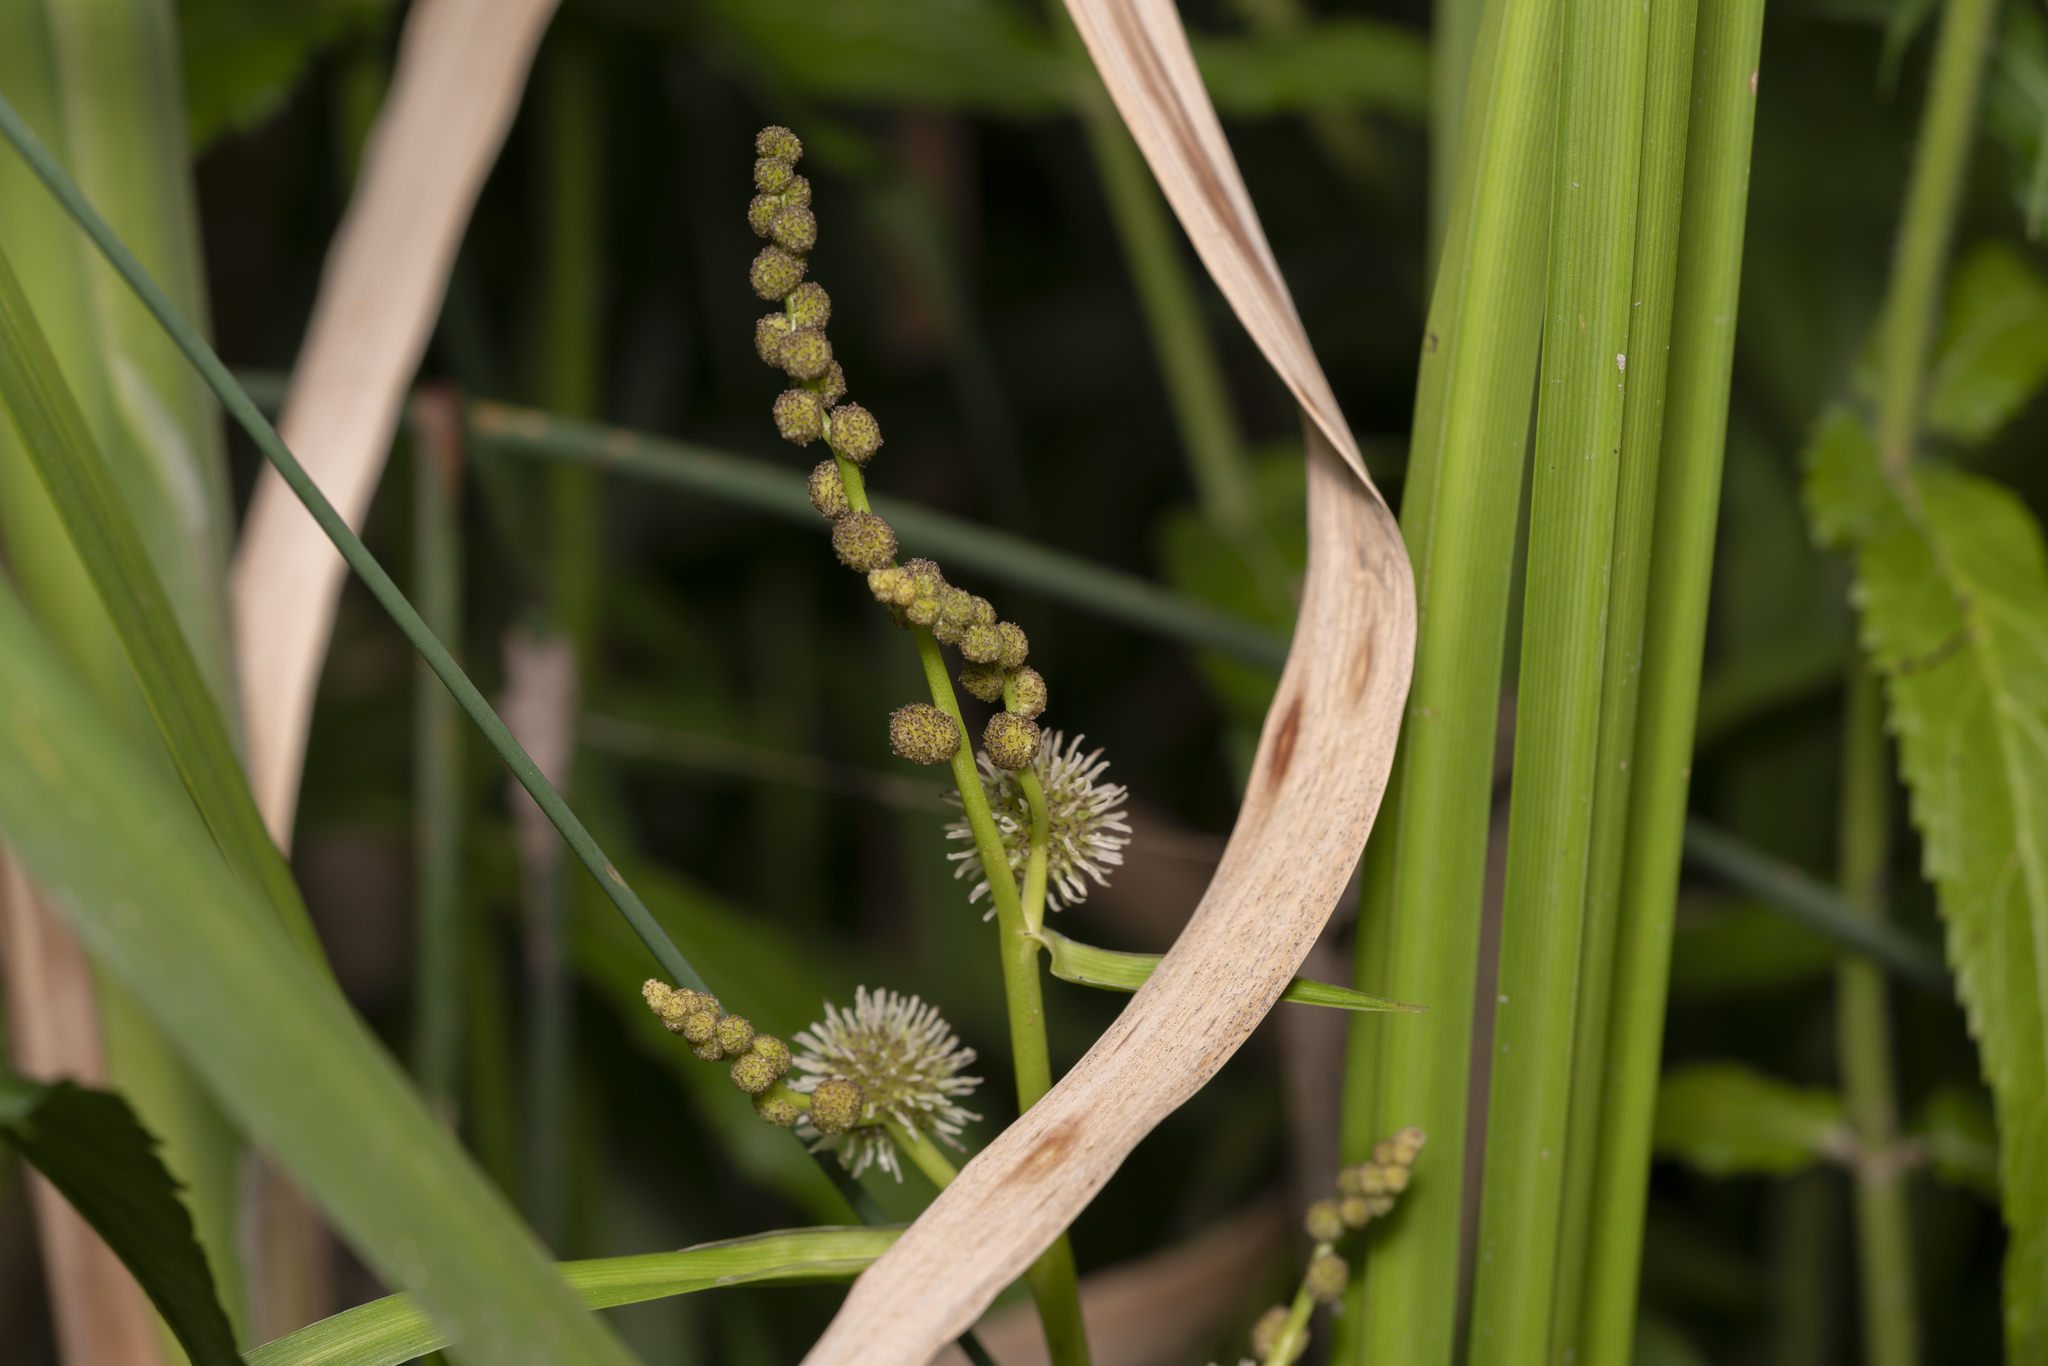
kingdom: Plantae
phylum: Tracheophyta
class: Liliopsida
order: Poales
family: Typhaceae
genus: Sparganium
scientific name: Sparganium erectum
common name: Branched bur-reed
